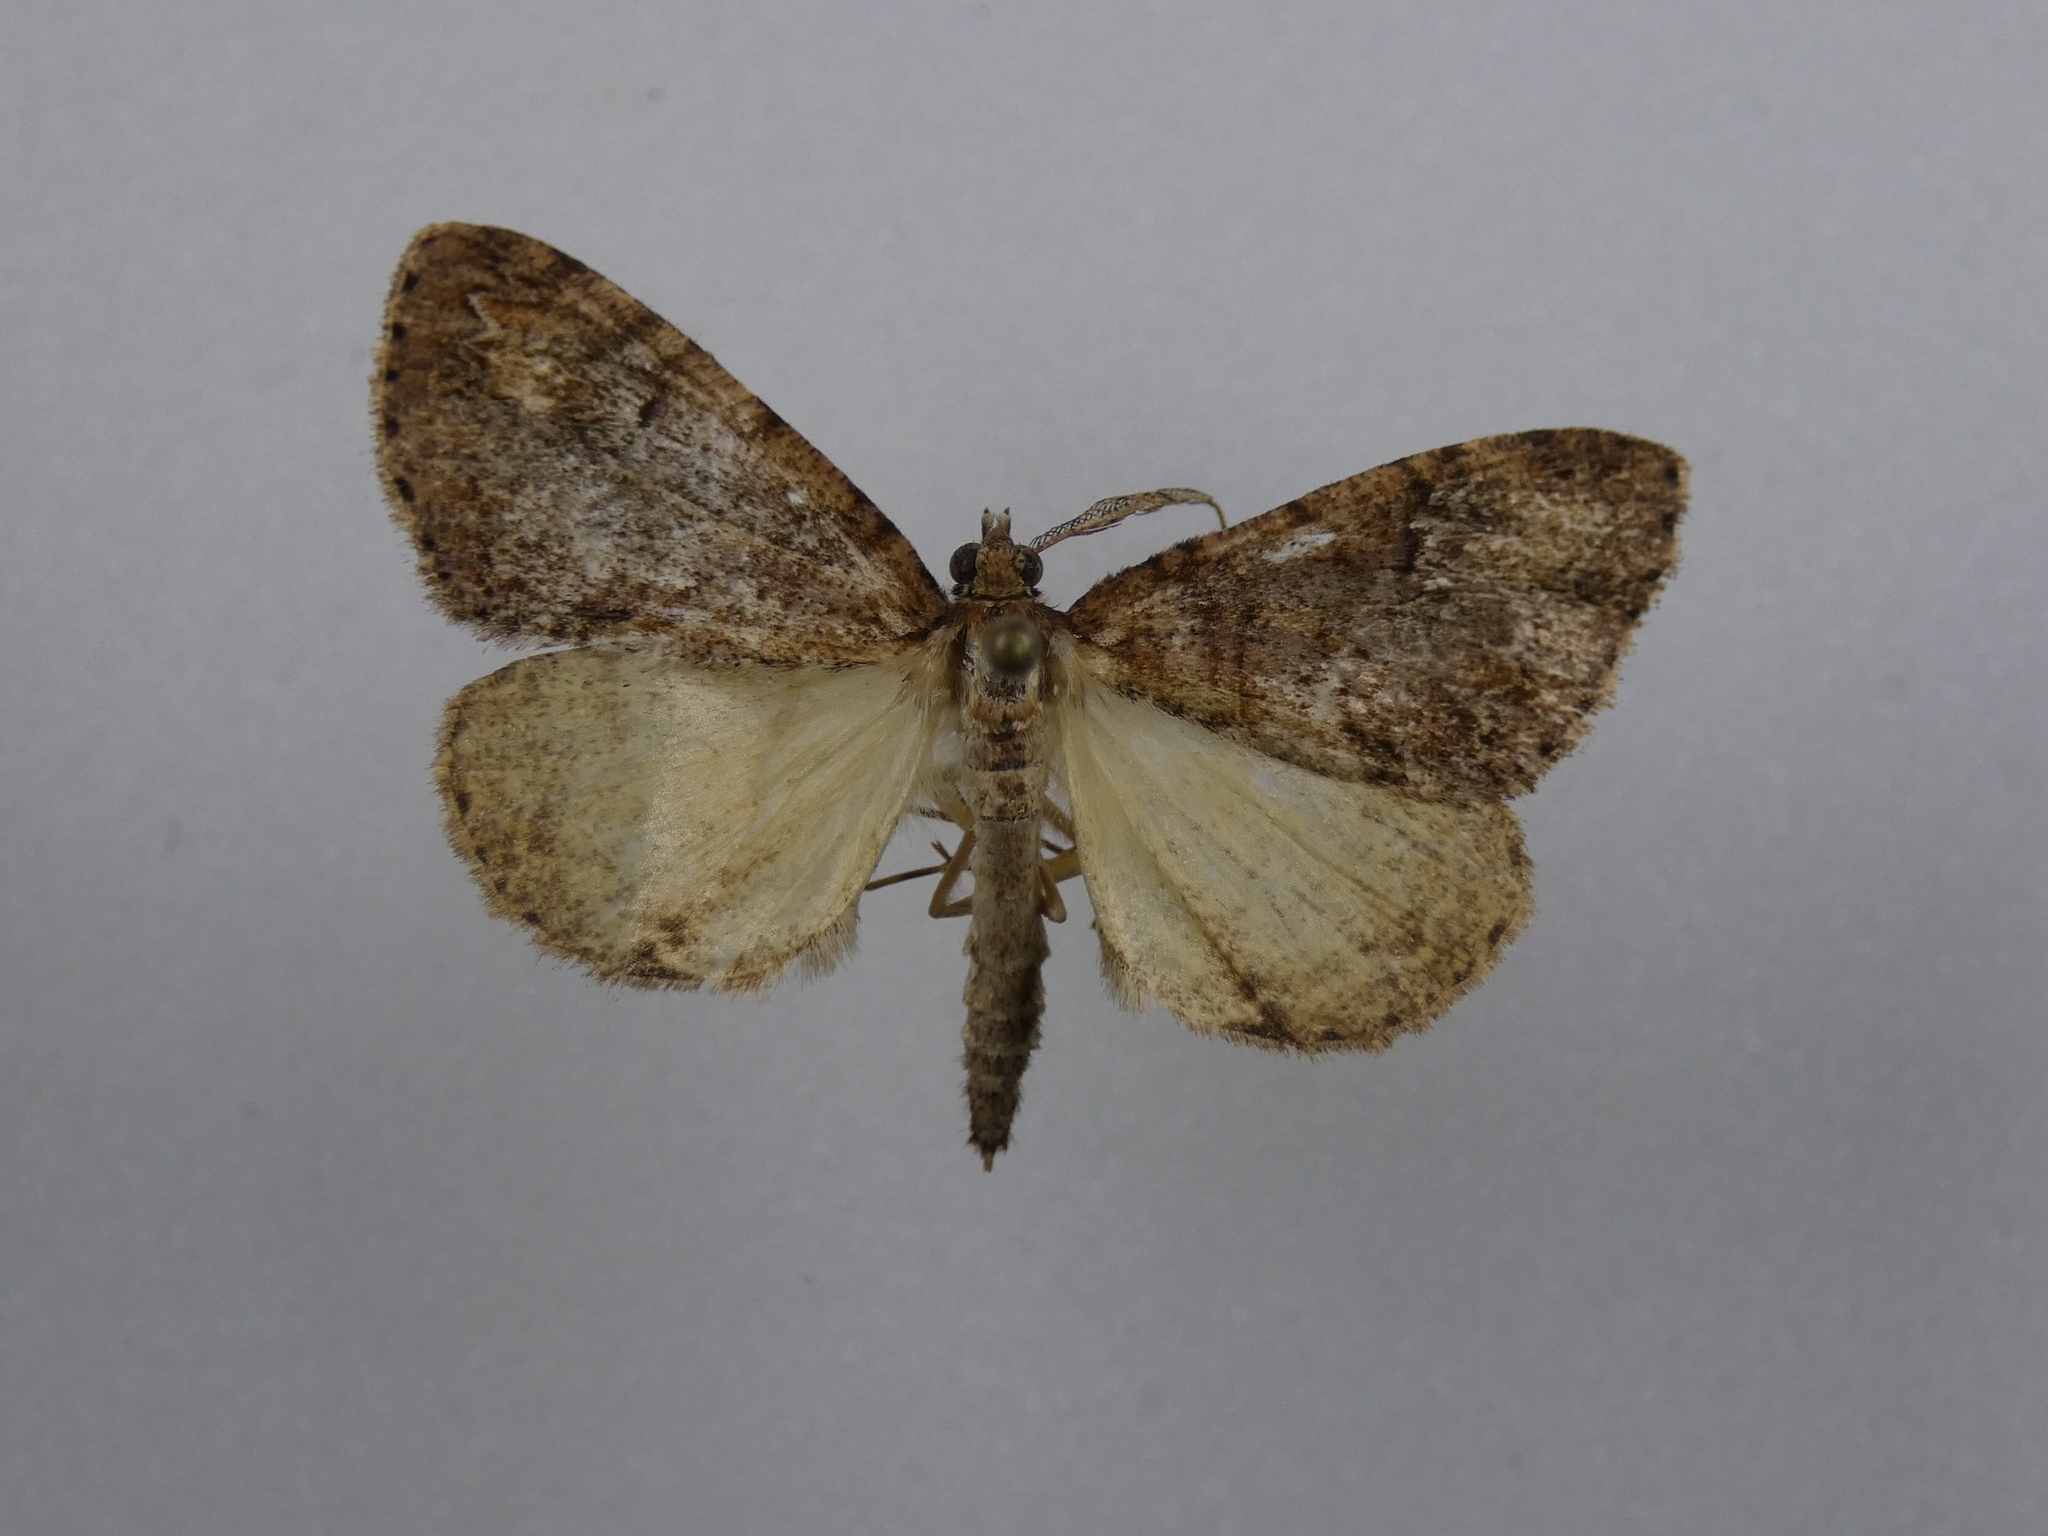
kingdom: Animalia
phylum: Arthropoda
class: Insecta
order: Lepidoptera
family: Geometridae
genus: Pseudocoremia
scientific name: Pseudocoremia suavis
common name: Common forest looper
